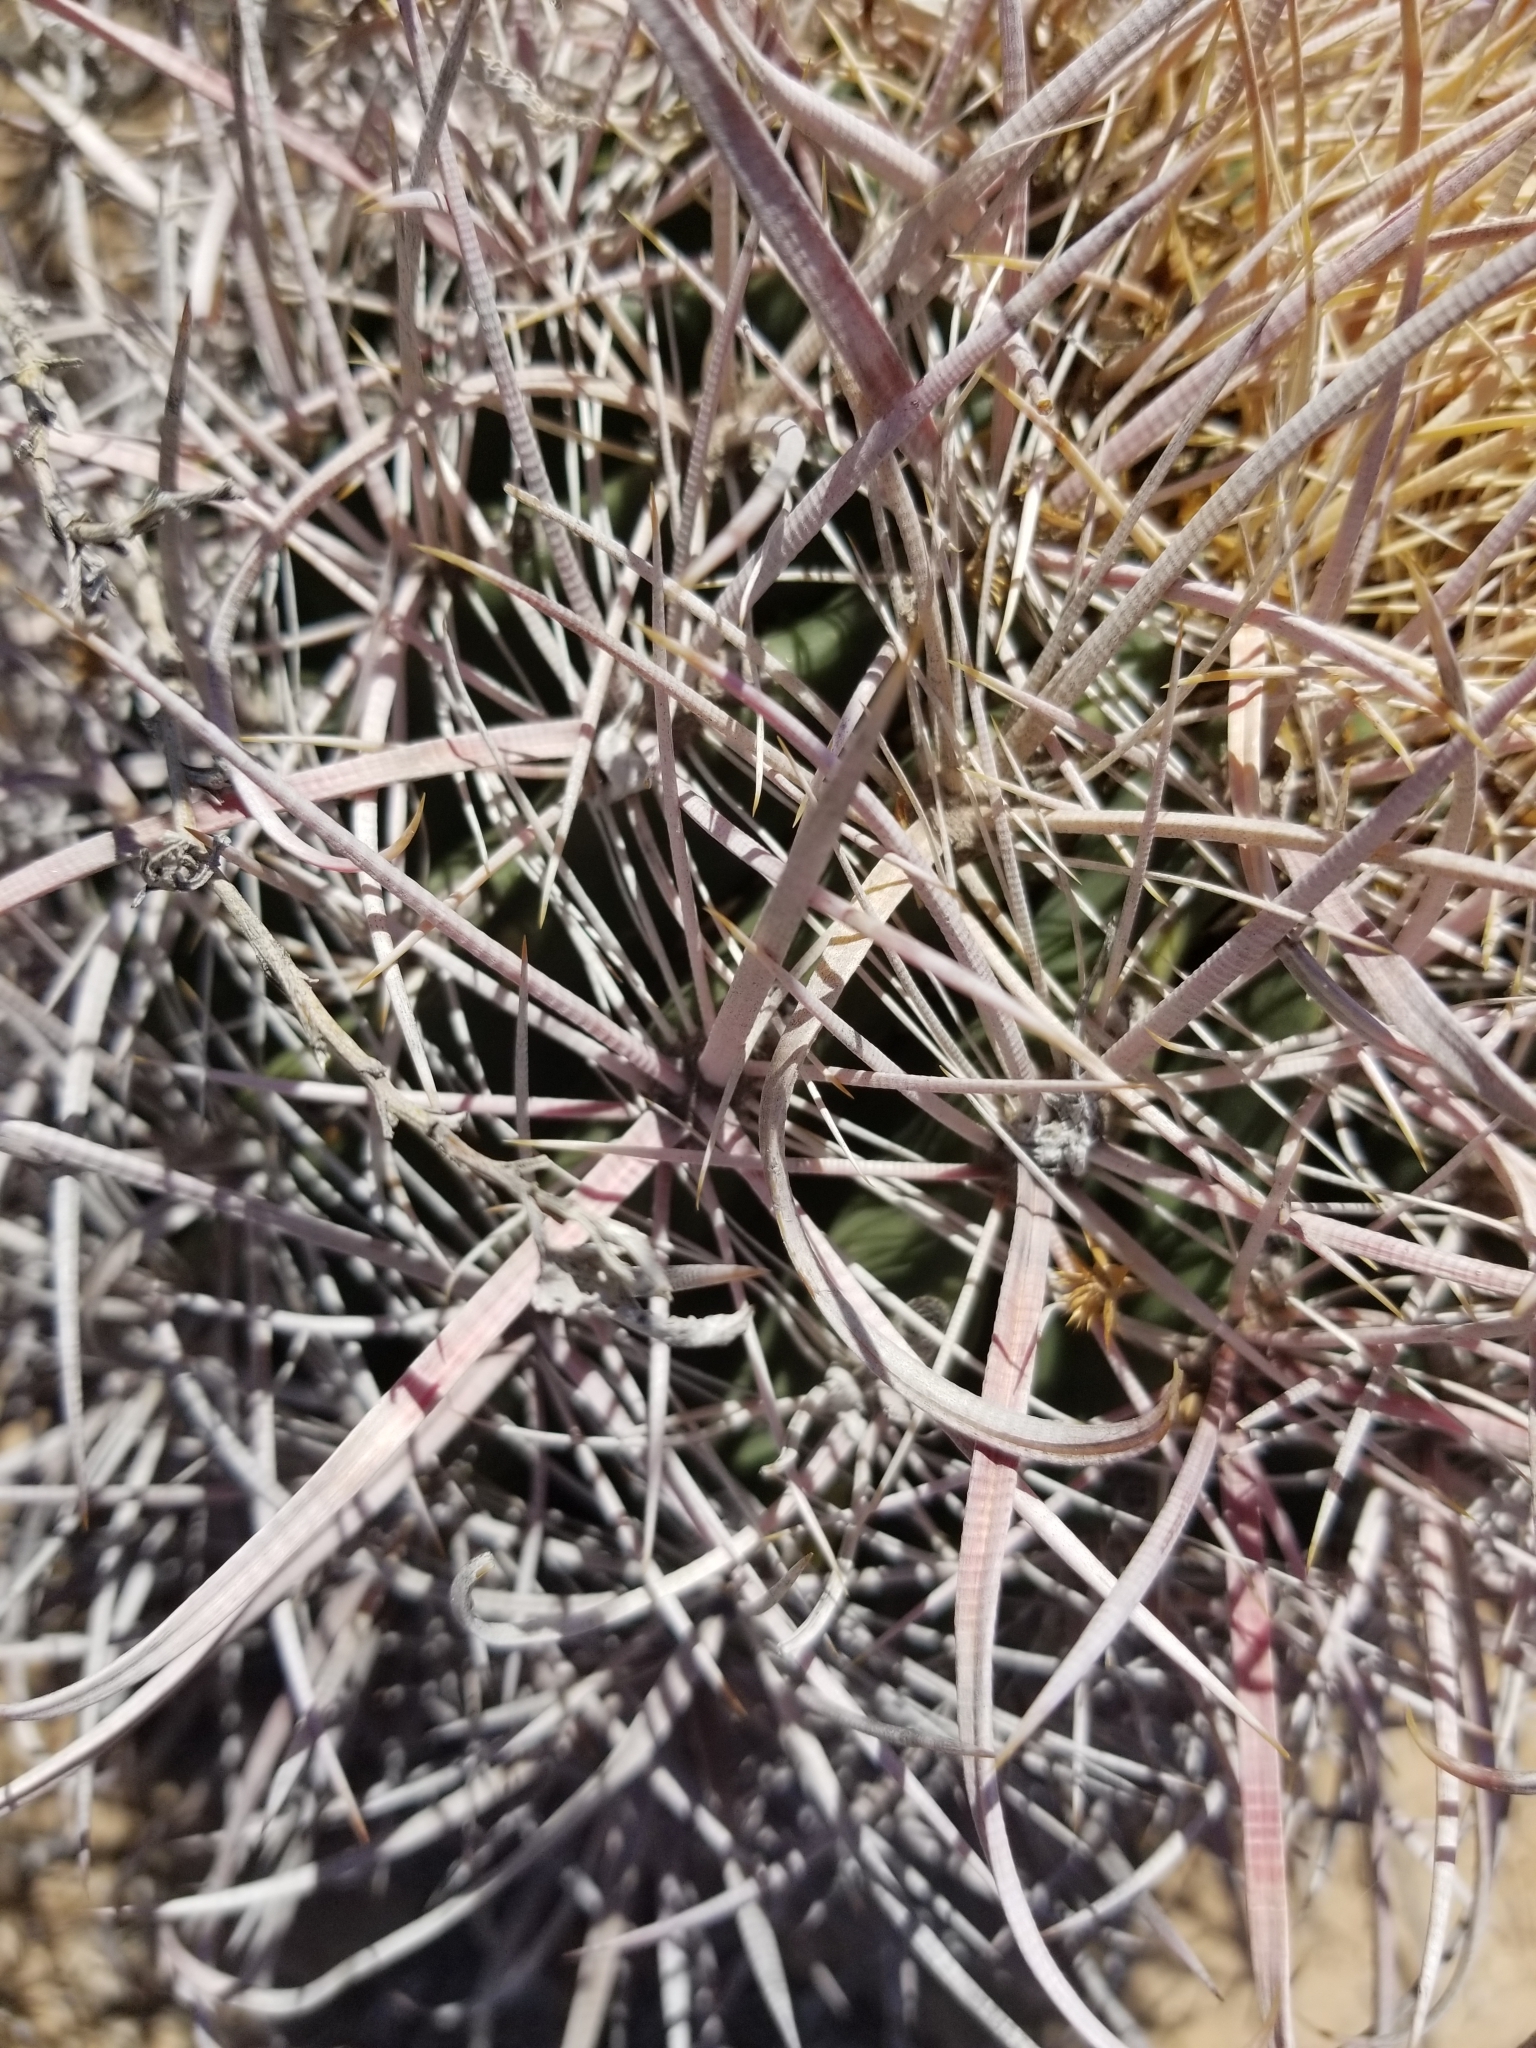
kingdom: Plantae
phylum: Tracheophyta
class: Magnoliopsida
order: Caryophyllales
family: Cactaceae
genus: Ferocactus
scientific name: Ferocactus wislizeni
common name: Candy barrel cactus
